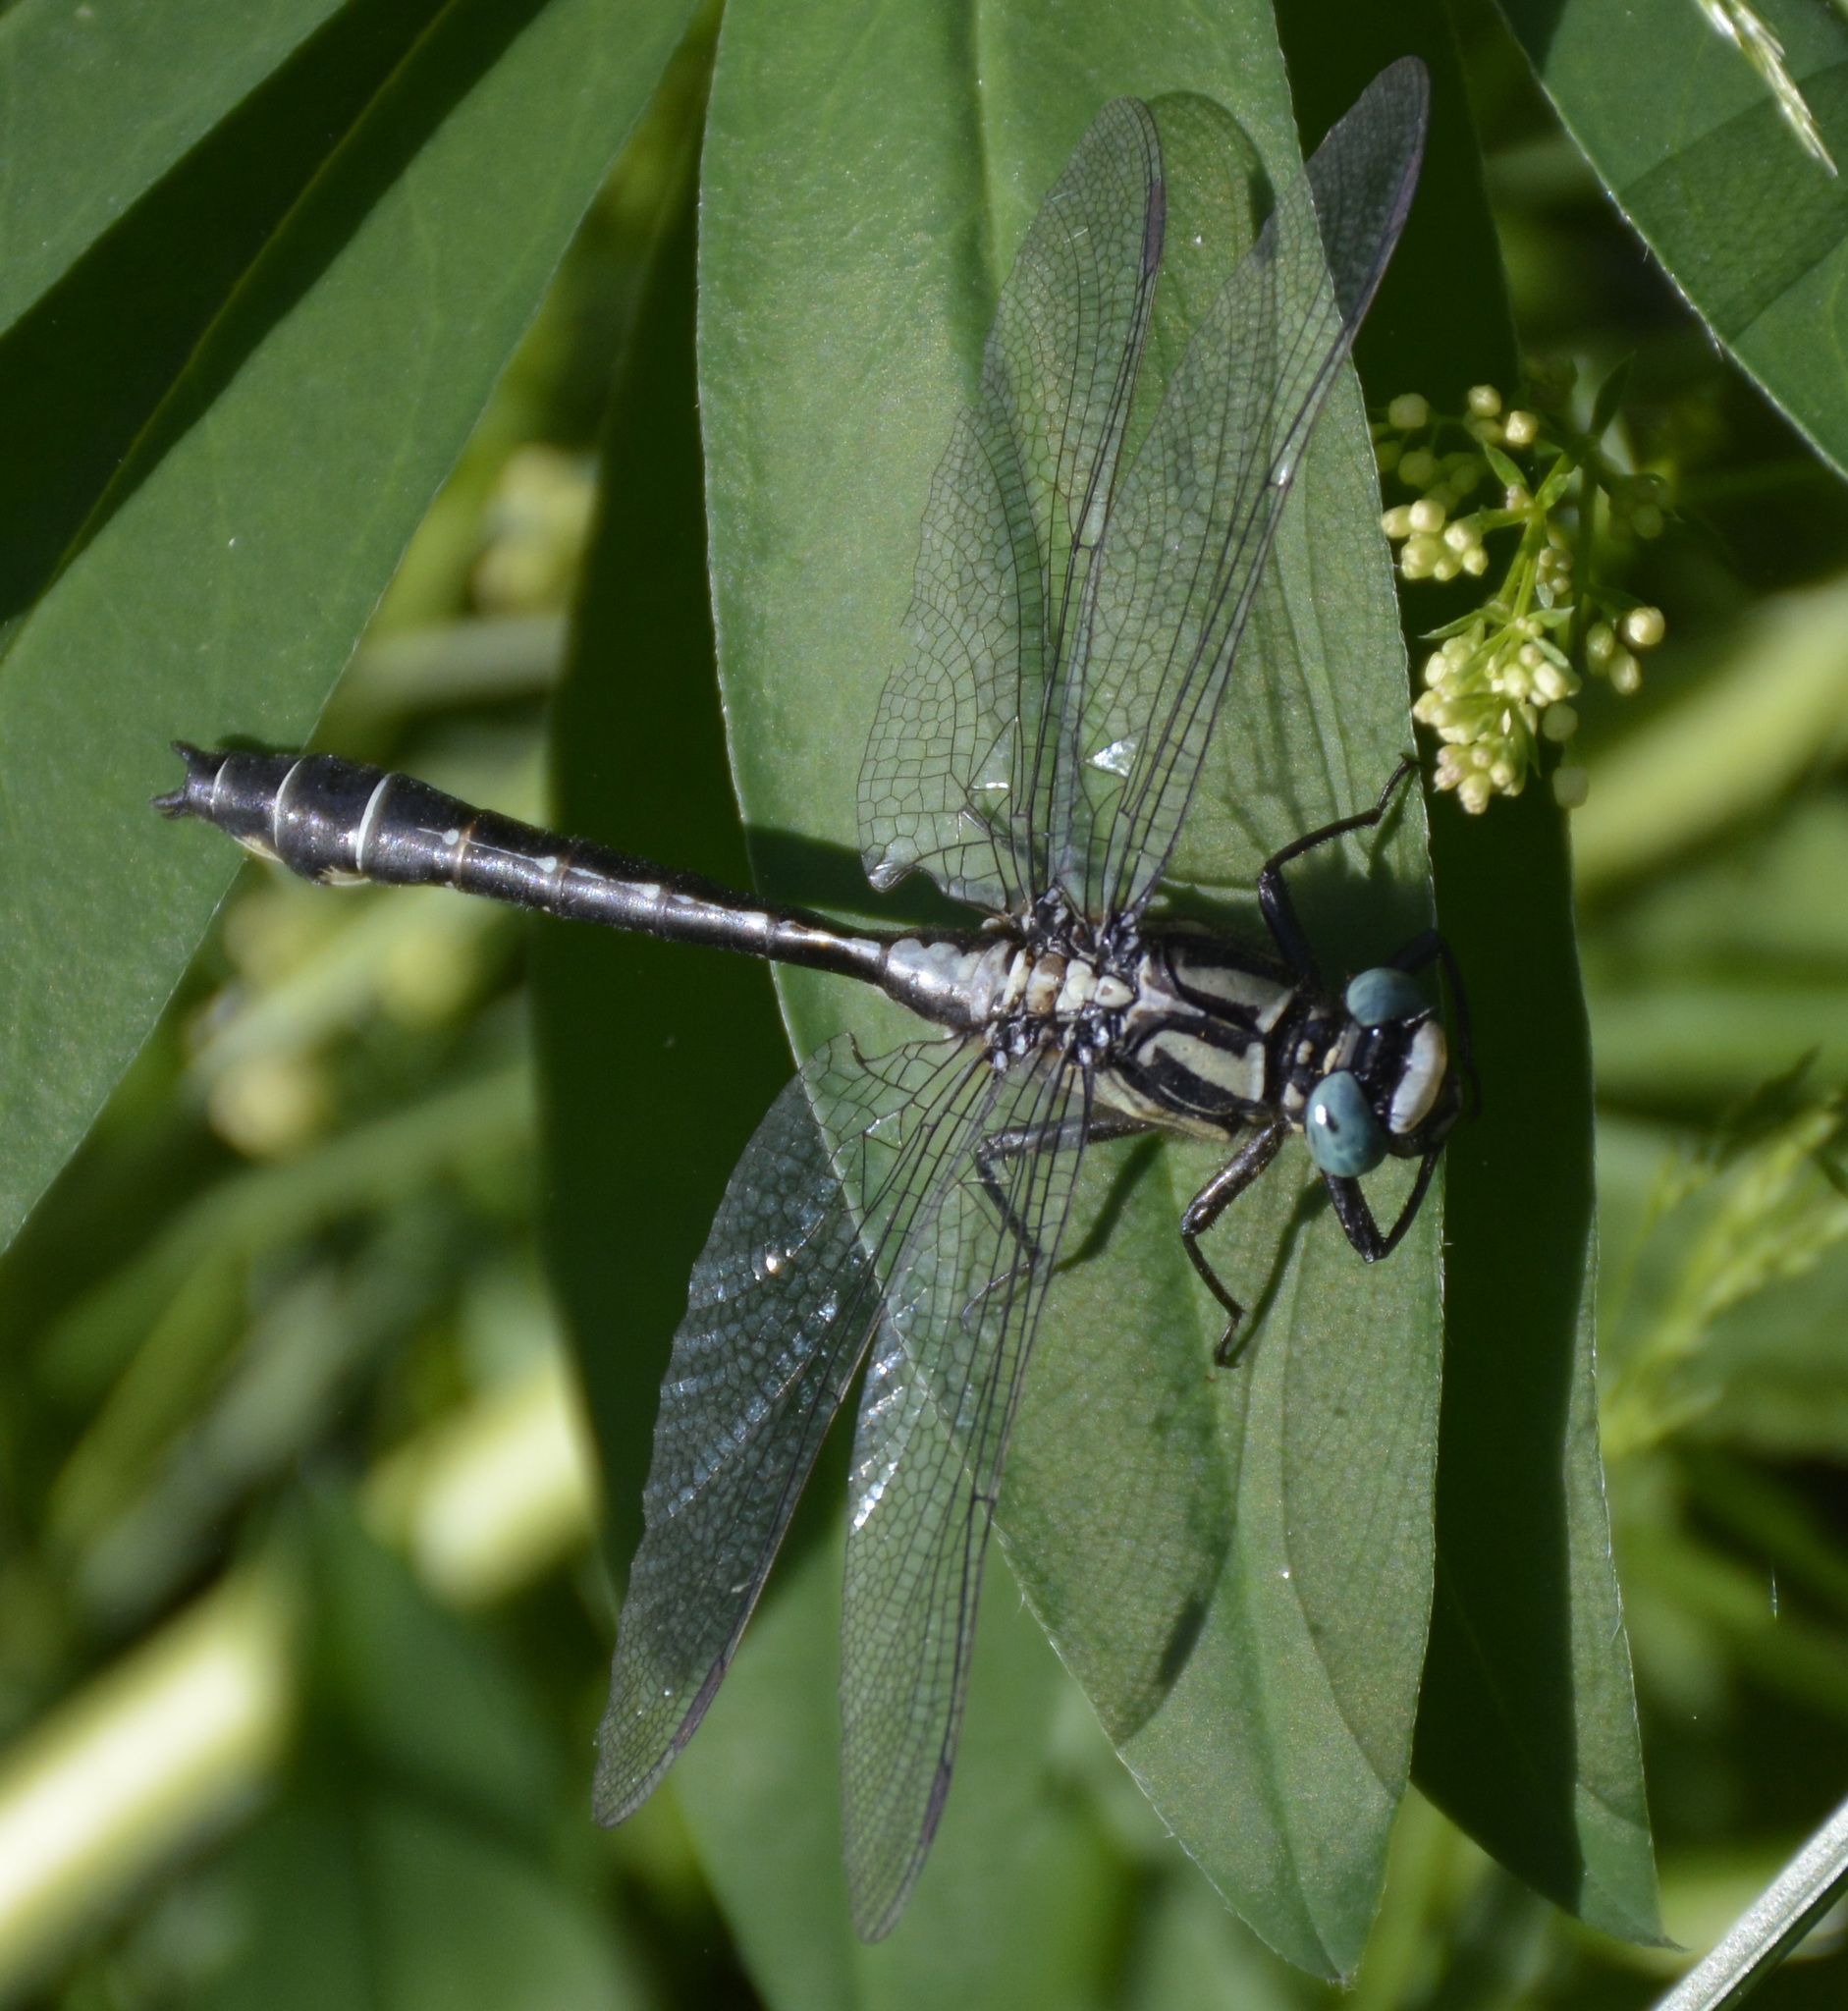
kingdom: Animalia
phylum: Arthropoda
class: Insecta
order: Odonata
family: Gomphidae
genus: Gomphus
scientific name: Gomphus vulgatissimus
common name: Club-tailed dragonfly
